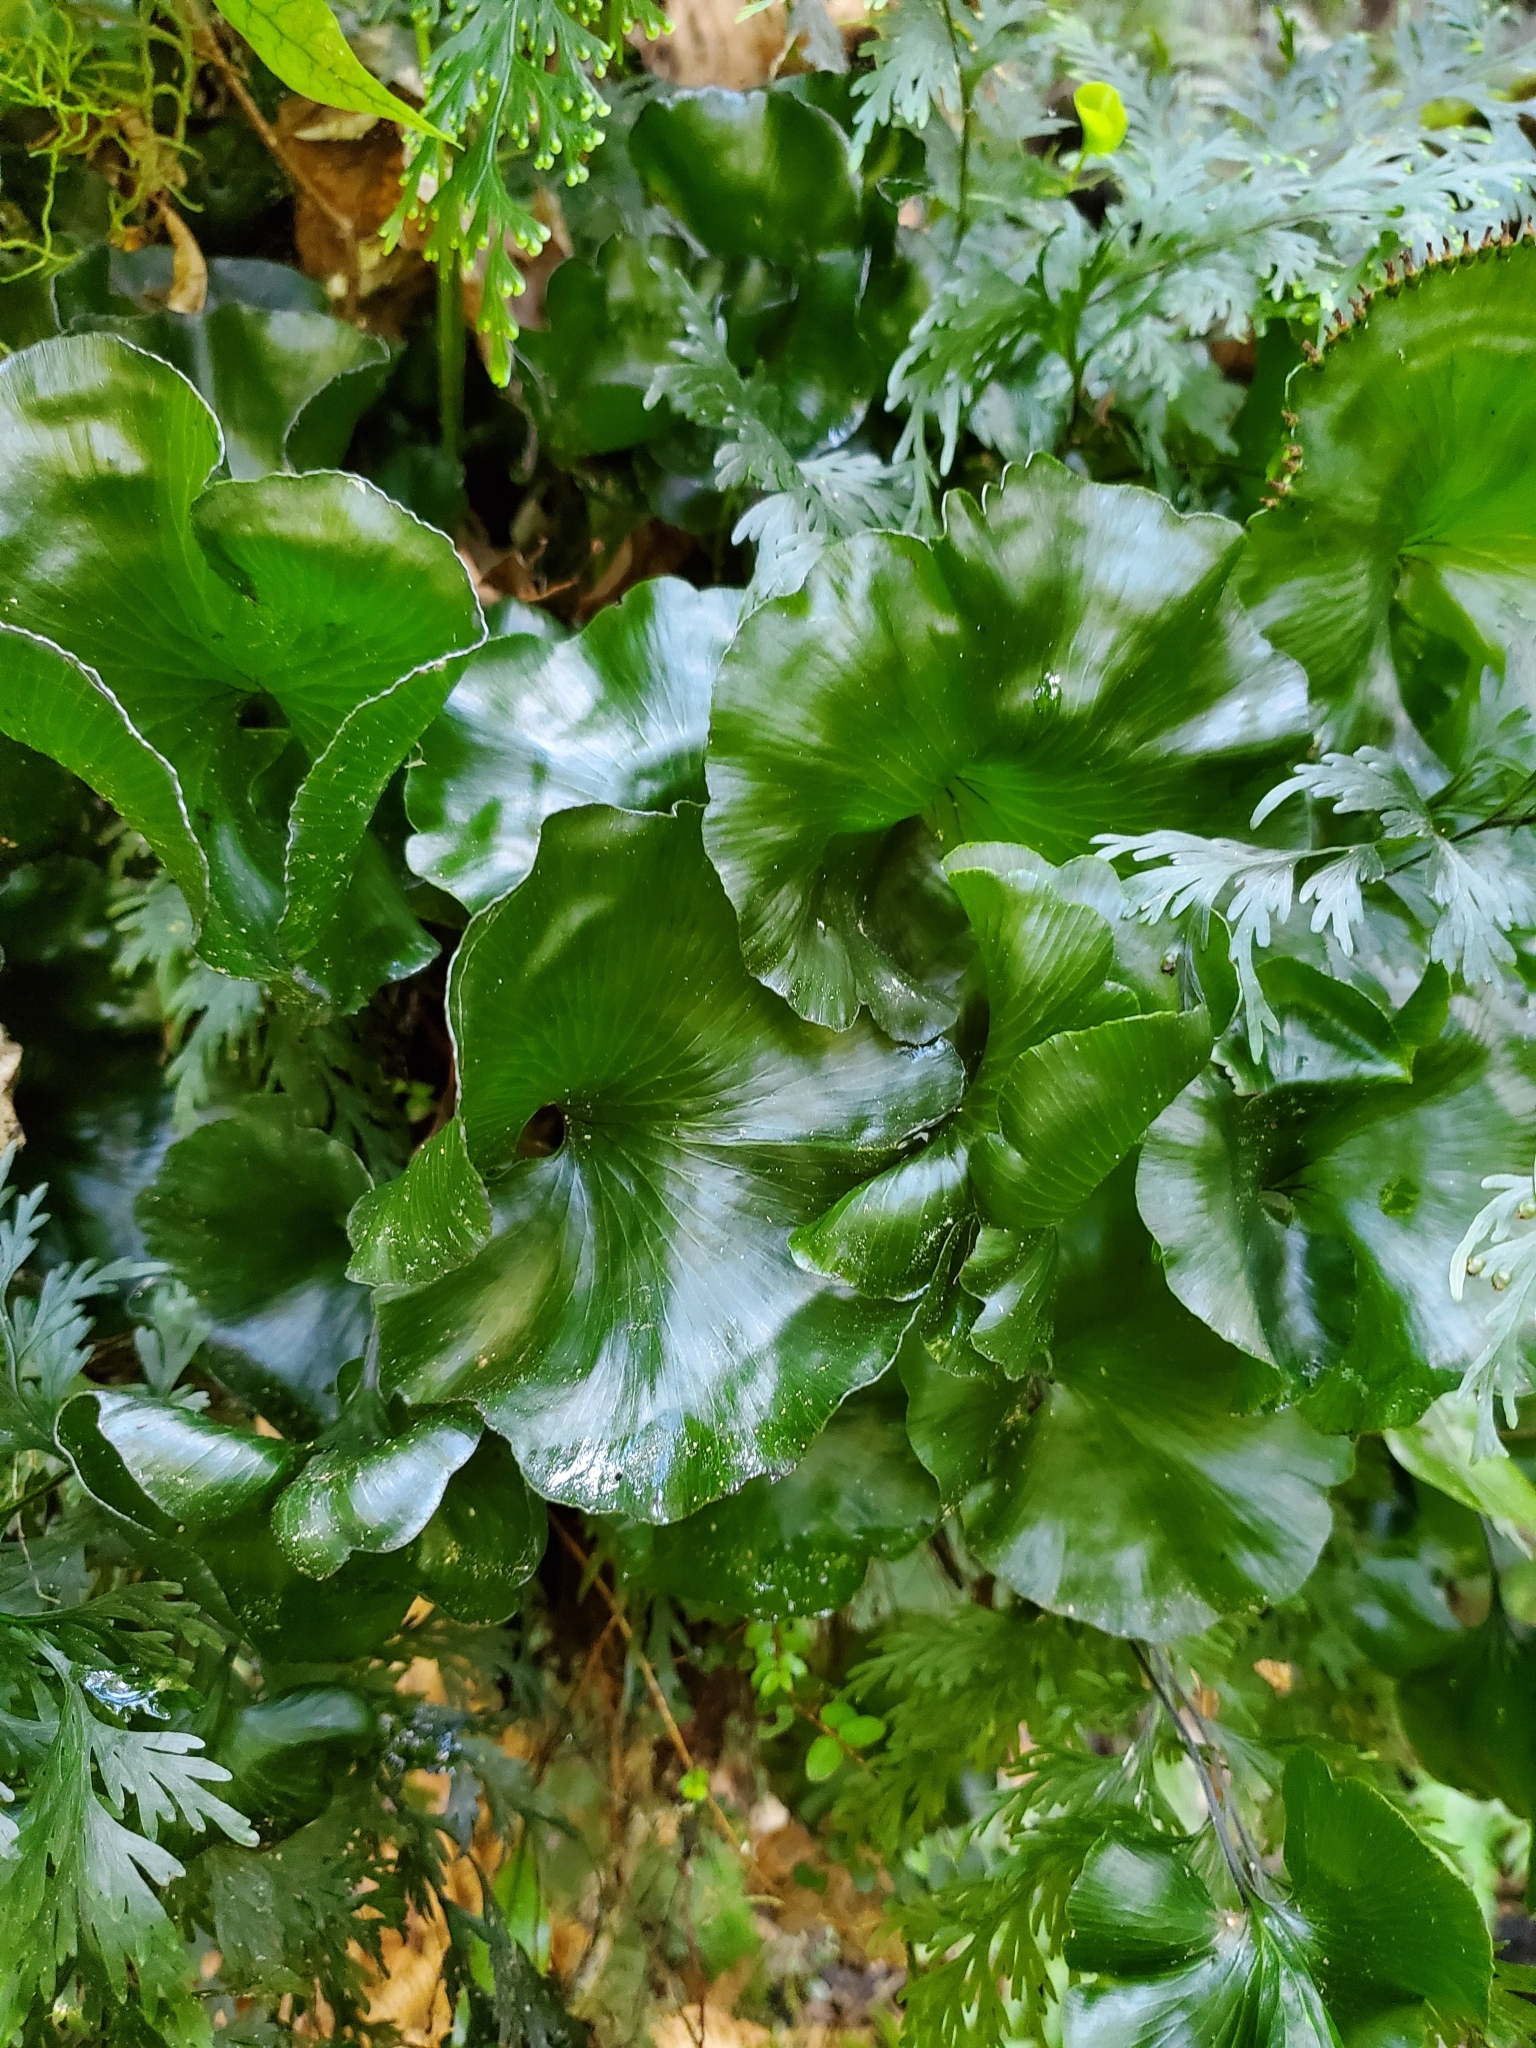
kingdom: Plantae
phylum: Tracheophyta
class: Polypodiopsida
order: Hymenophyllales
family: Hymenophyllaceae
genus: Hymenophyllum
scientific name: Hymenophyllum nephrophyllum
